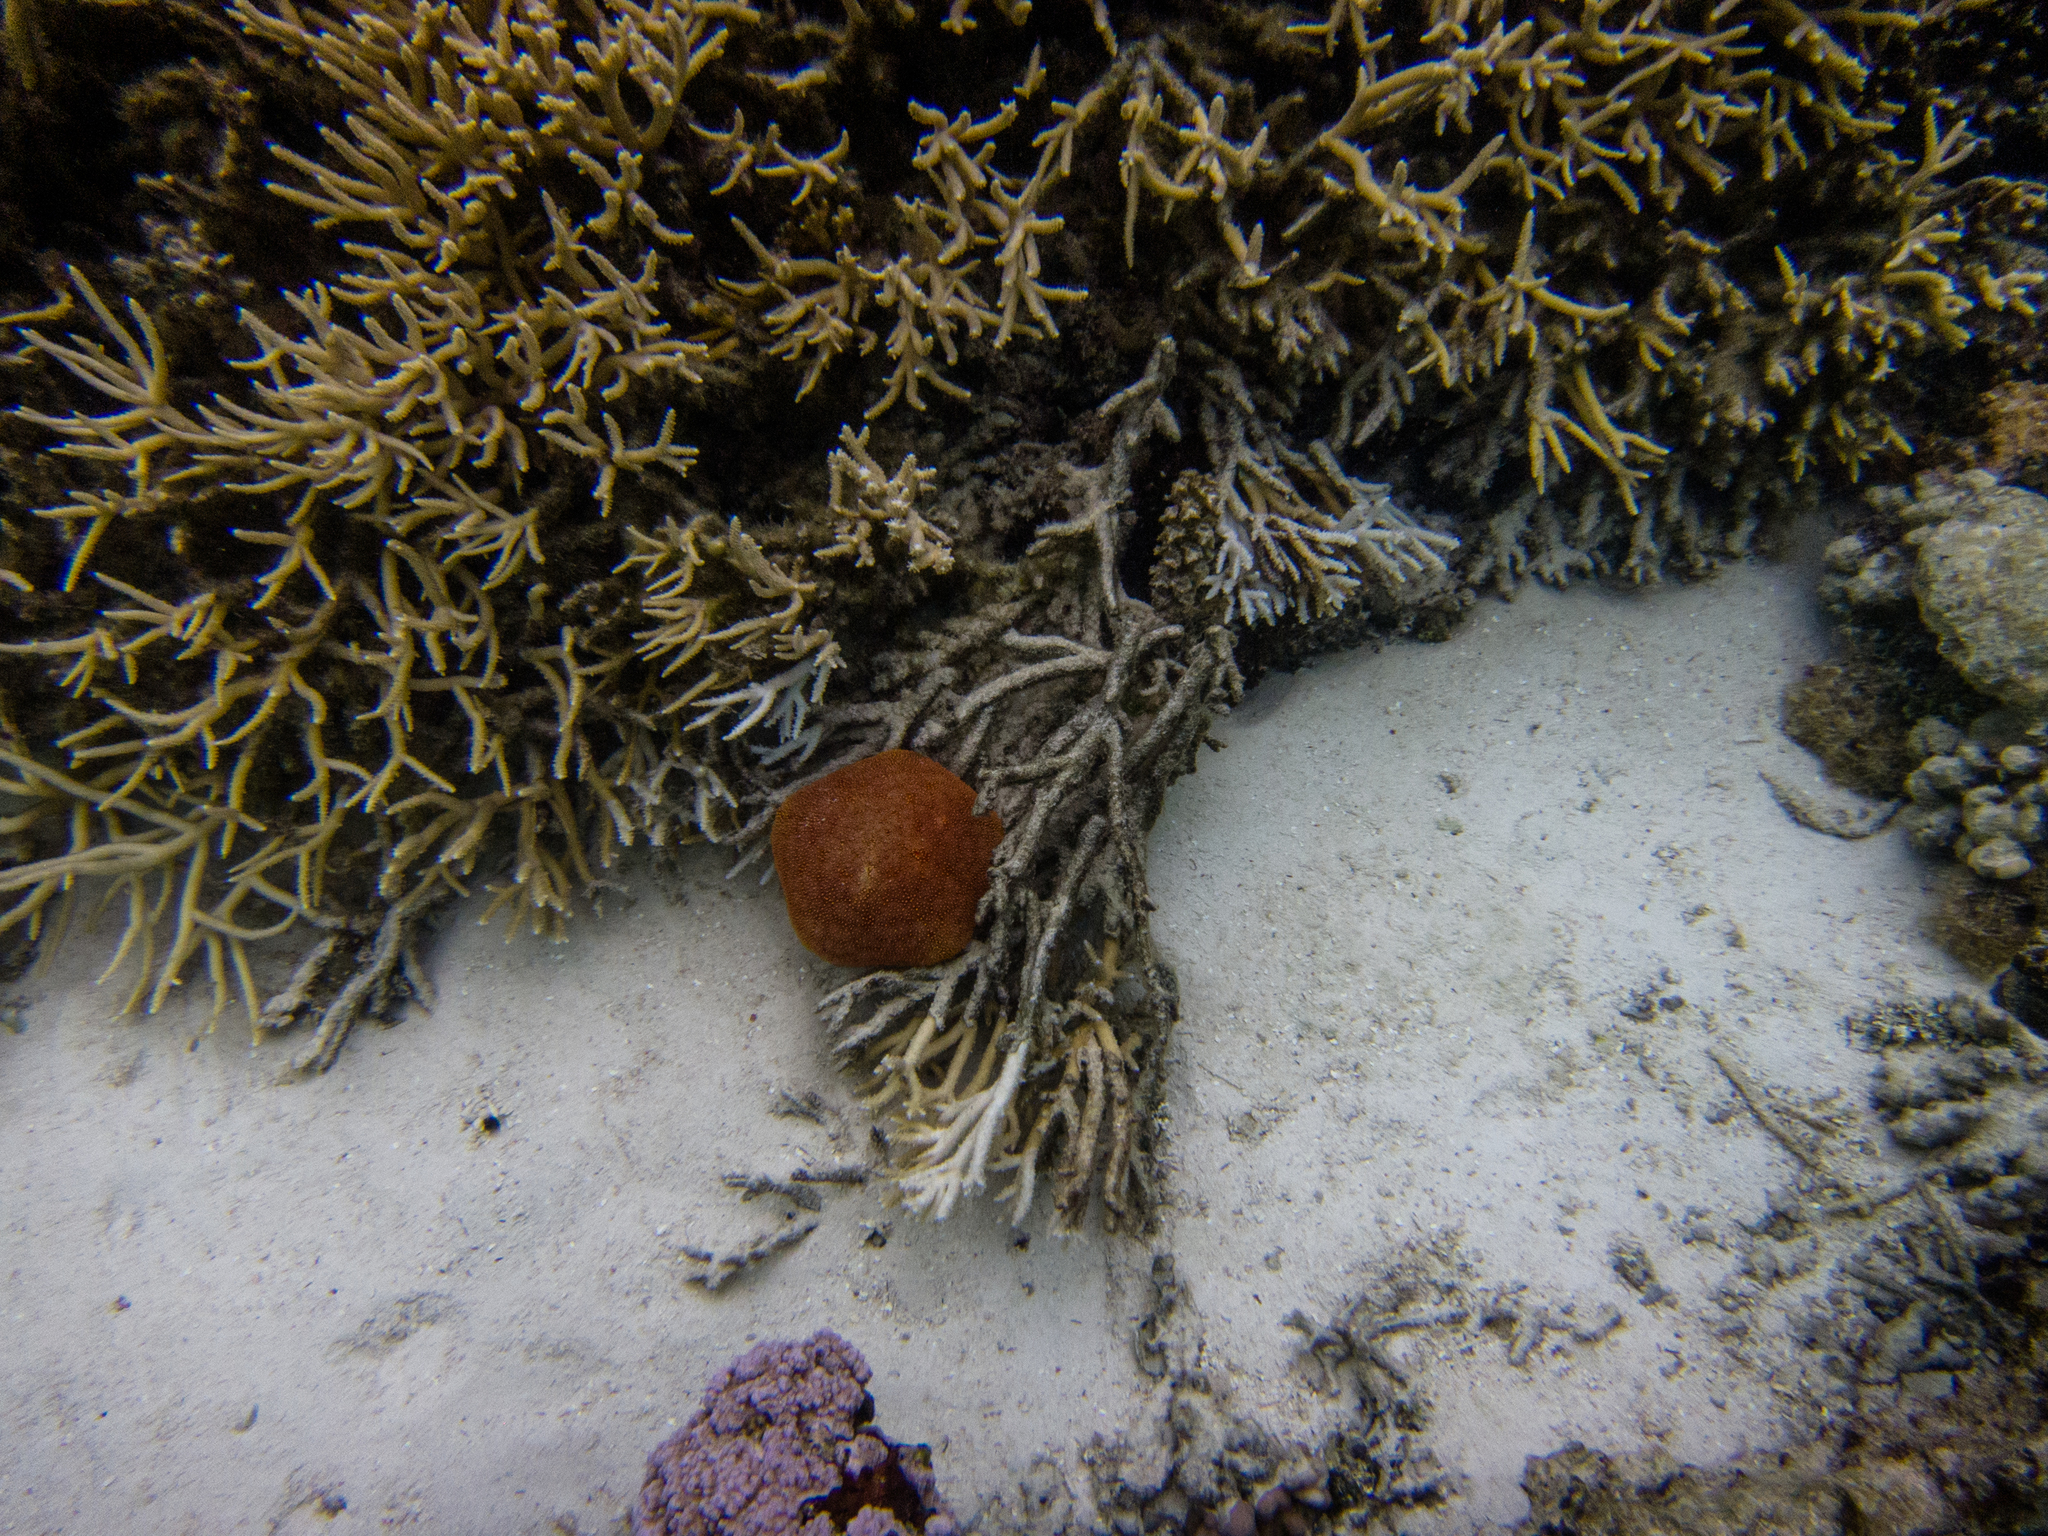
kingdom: Animalia
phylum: Echinodermata
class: Asteroidea
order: Valvatida
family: Oreasteridae
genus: Culcita
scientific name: Culcita novaeguineae
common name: Cushion star
